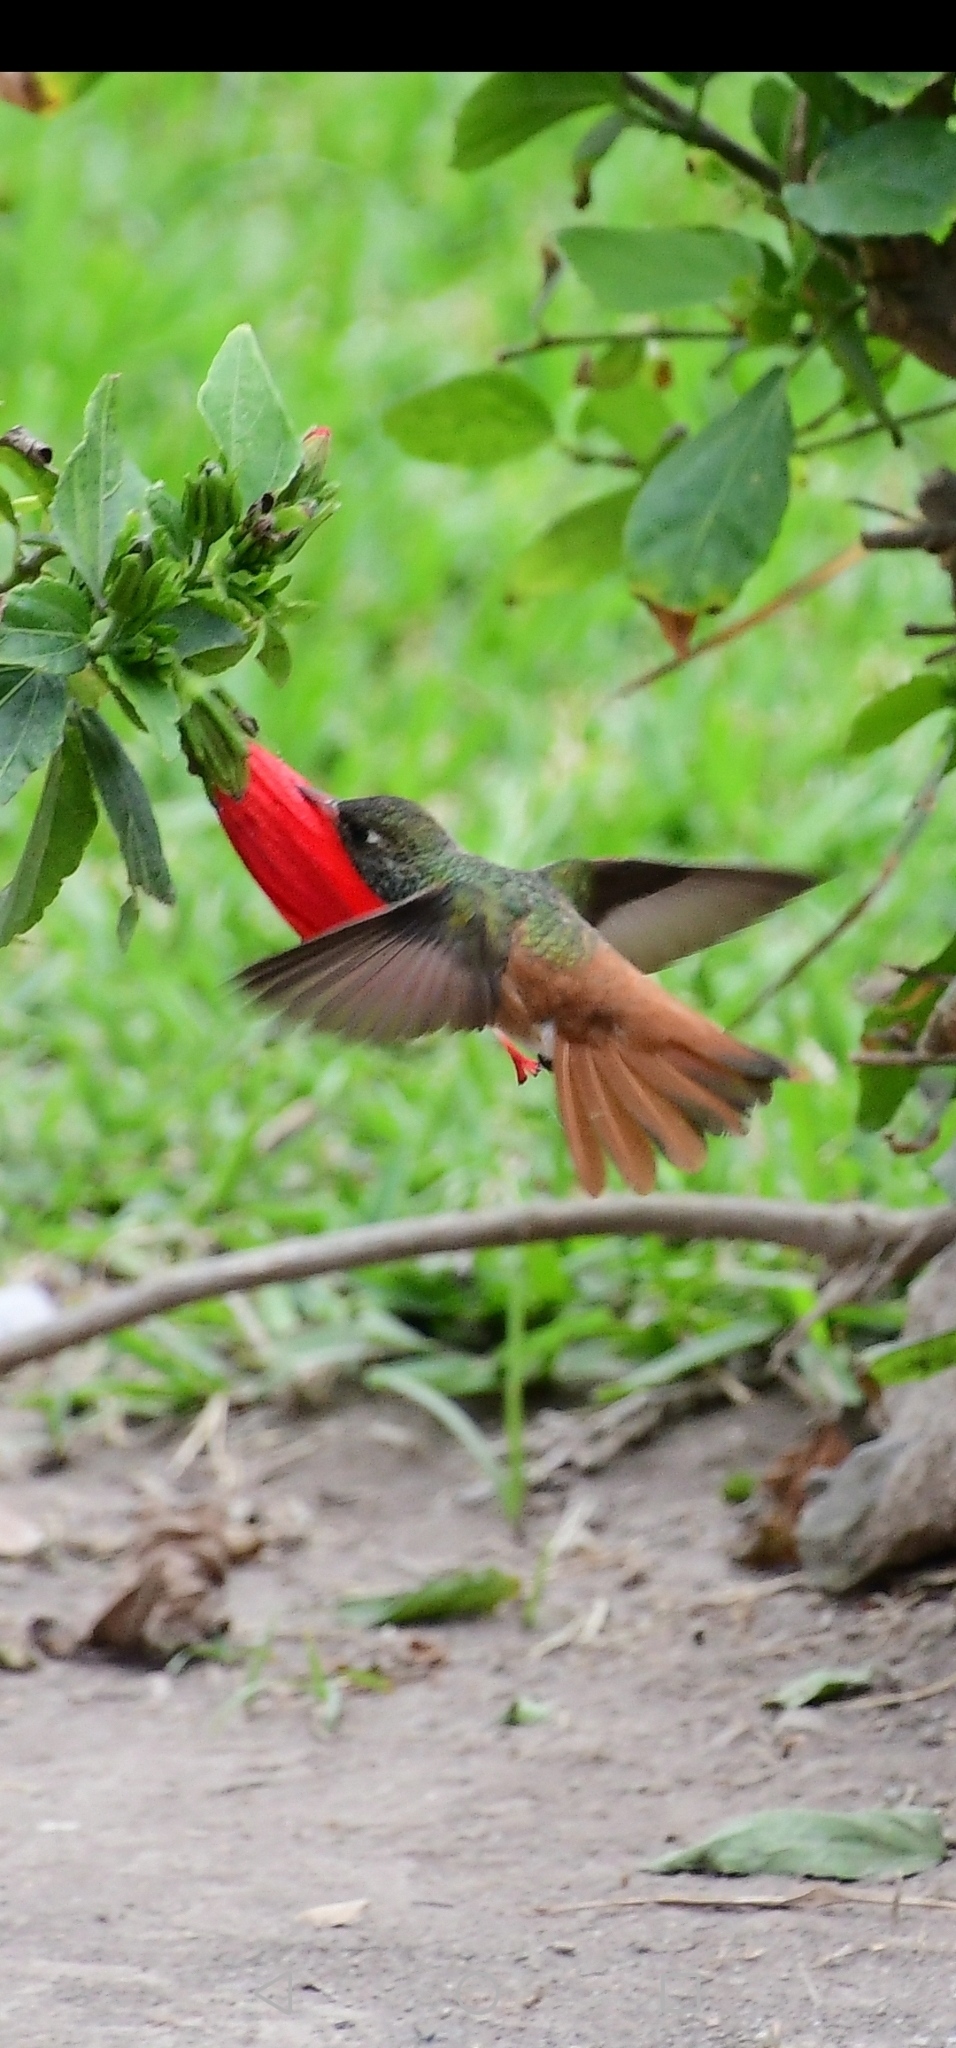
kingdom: Animalia
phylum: Chordata
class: Aves
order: Apodiformes
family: Trochilidae
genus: Amazilis
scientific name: Amazilis amazilia
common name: Amazilia hummingbird
